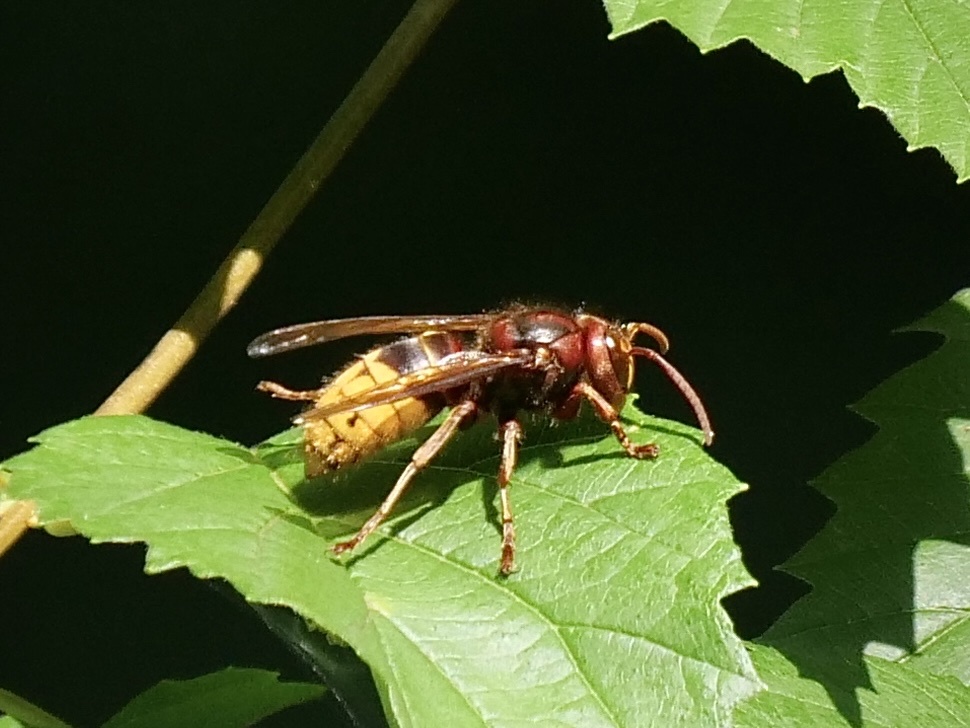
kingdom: Animalia
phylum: Arthropoda
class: Insecta
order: Hymenoptera
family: Vespidae
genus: Vespa
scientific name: Vespa crabro
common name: Hornet
